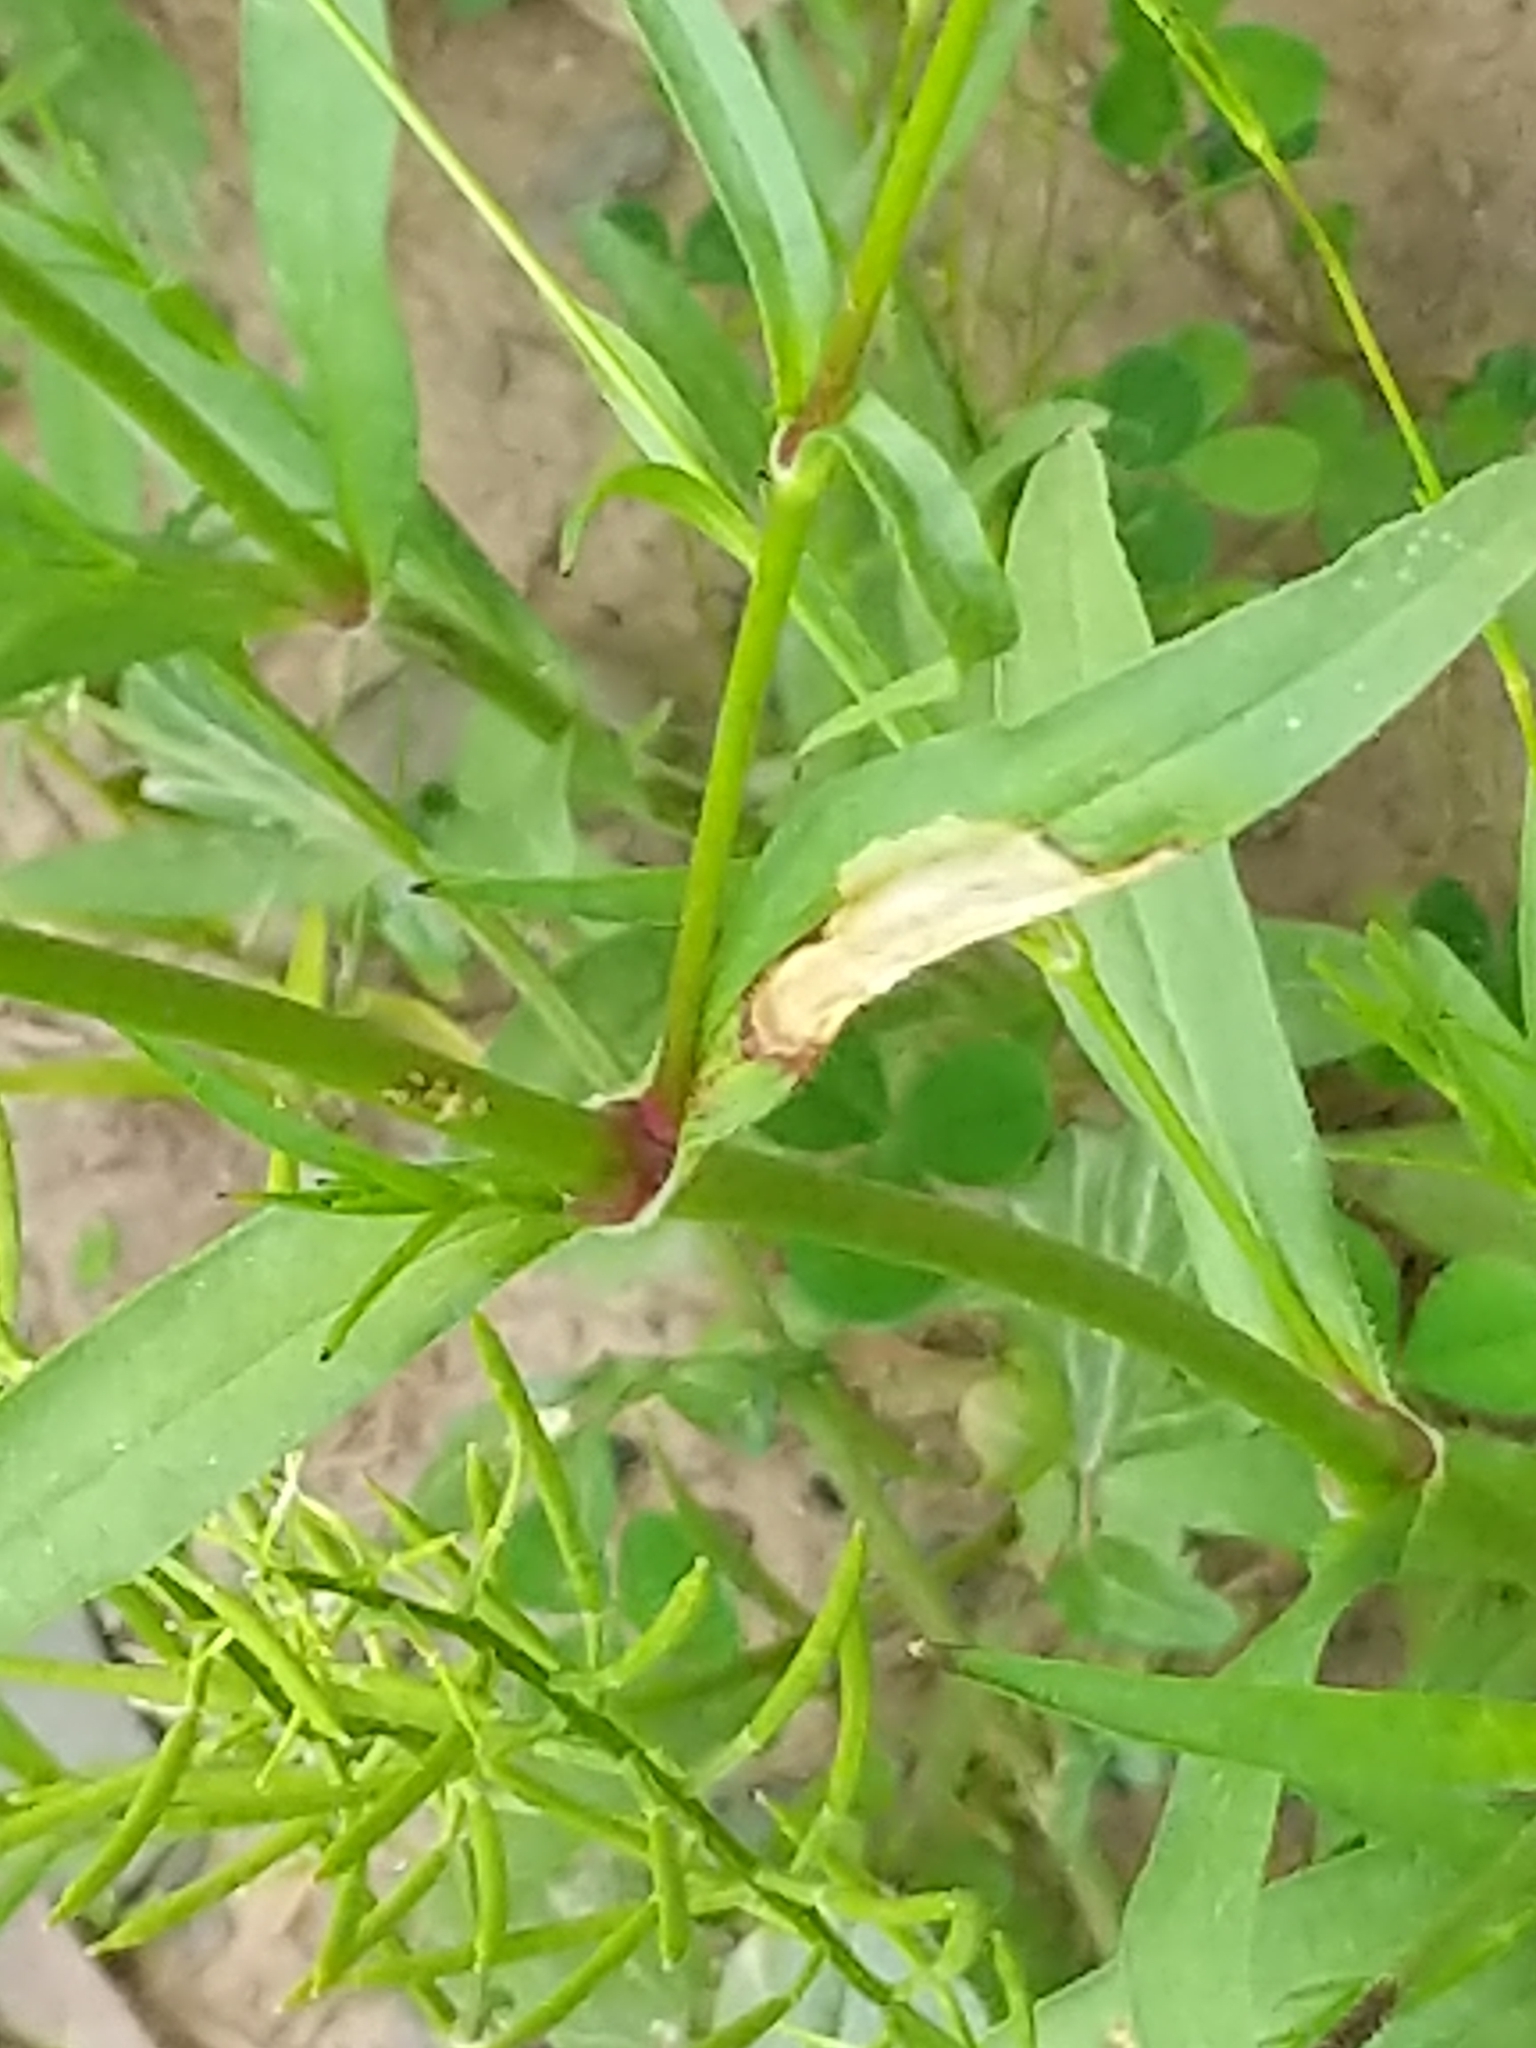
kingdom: Plantae
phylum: Tracheophyta
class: Magnoliopsida
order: Caryophyllales
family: Caryophyllaceae
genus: Silene
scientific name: Silene antirrhina
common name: Sleepy catchfly
